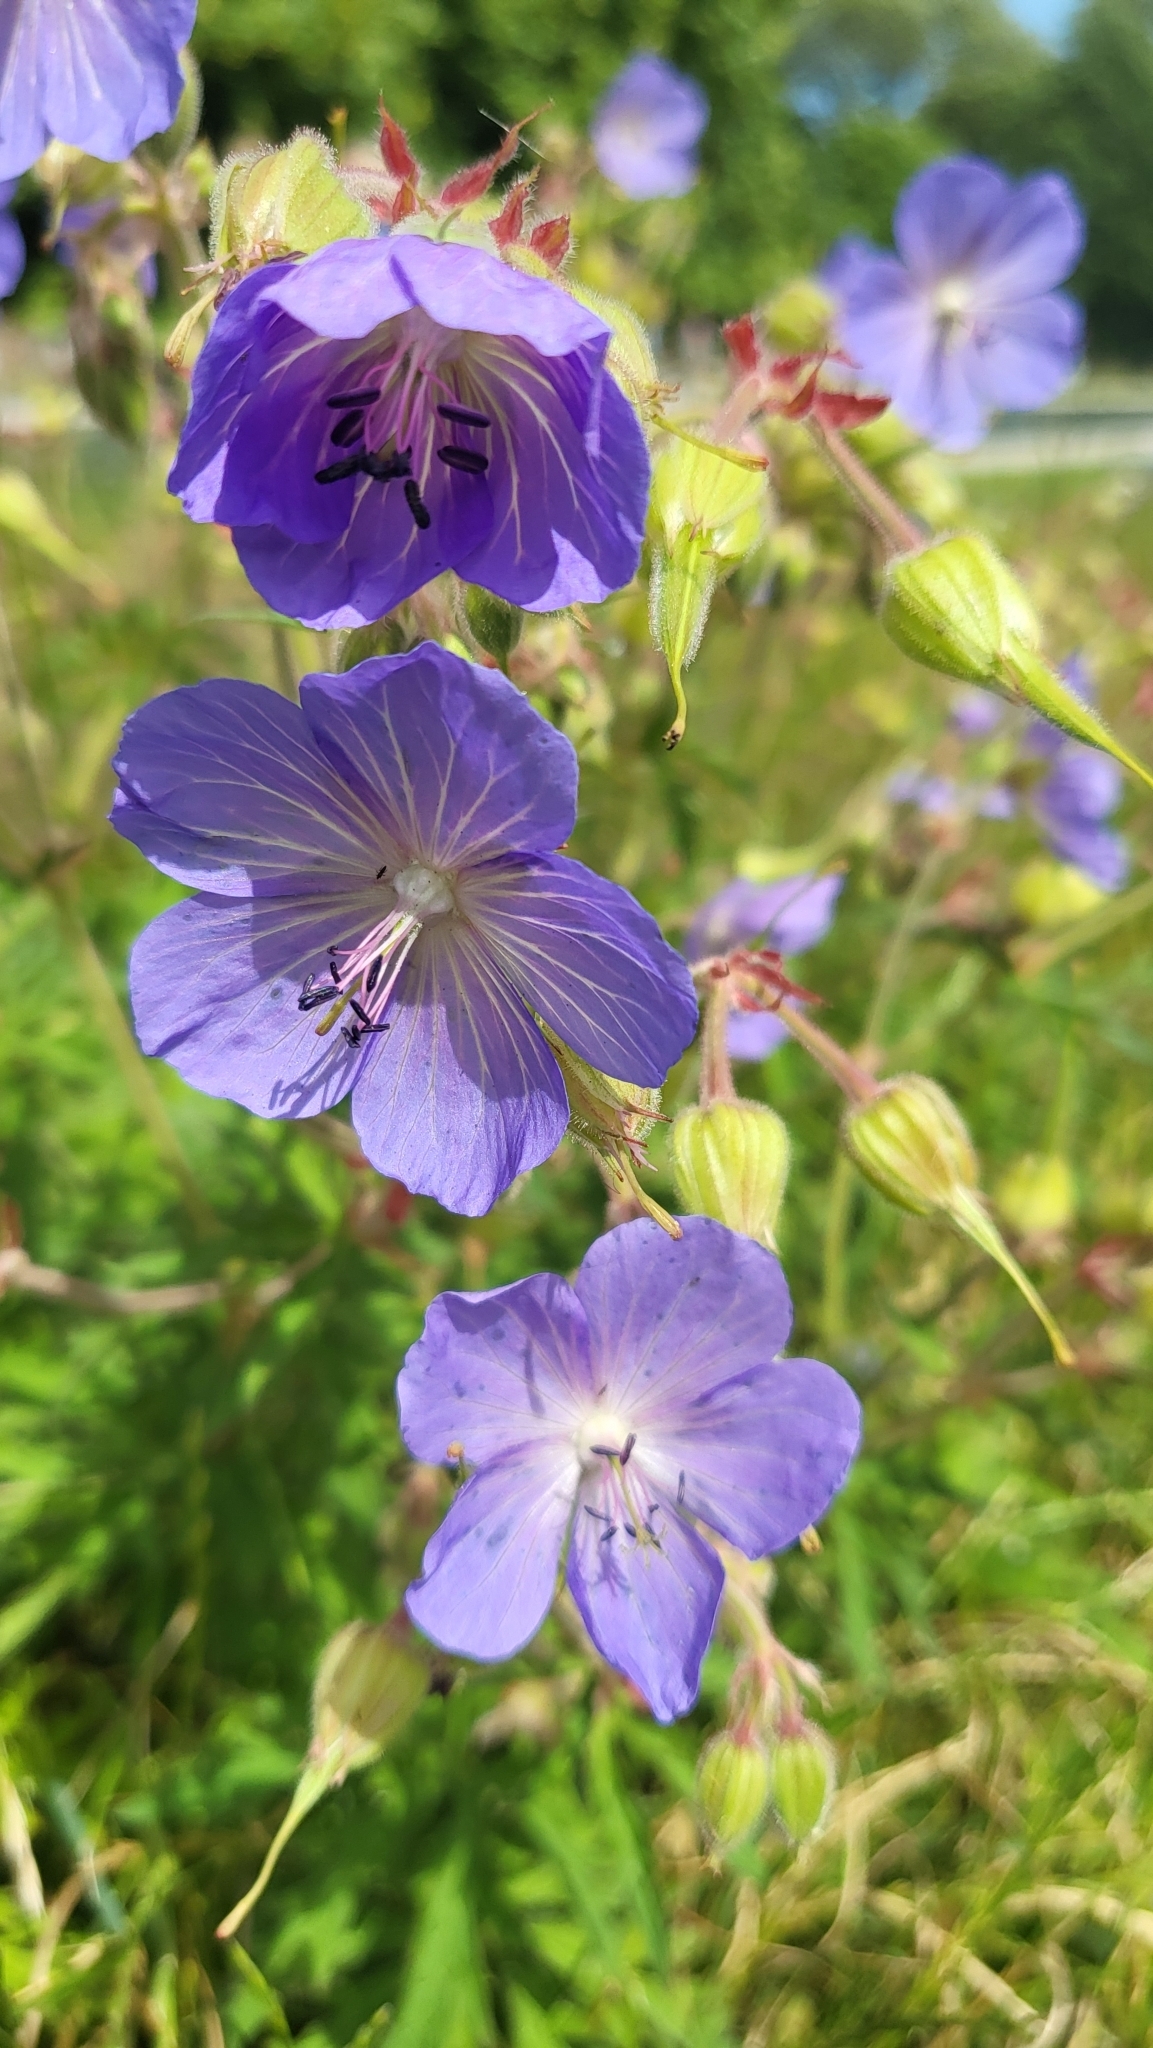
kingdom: Plantae
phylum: Tracheophyta
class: Magnoliopsida
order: Geraniales
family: Geraniaceae
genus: Geranium
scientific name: Geranium pratense
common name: Meadow crane's-bill
